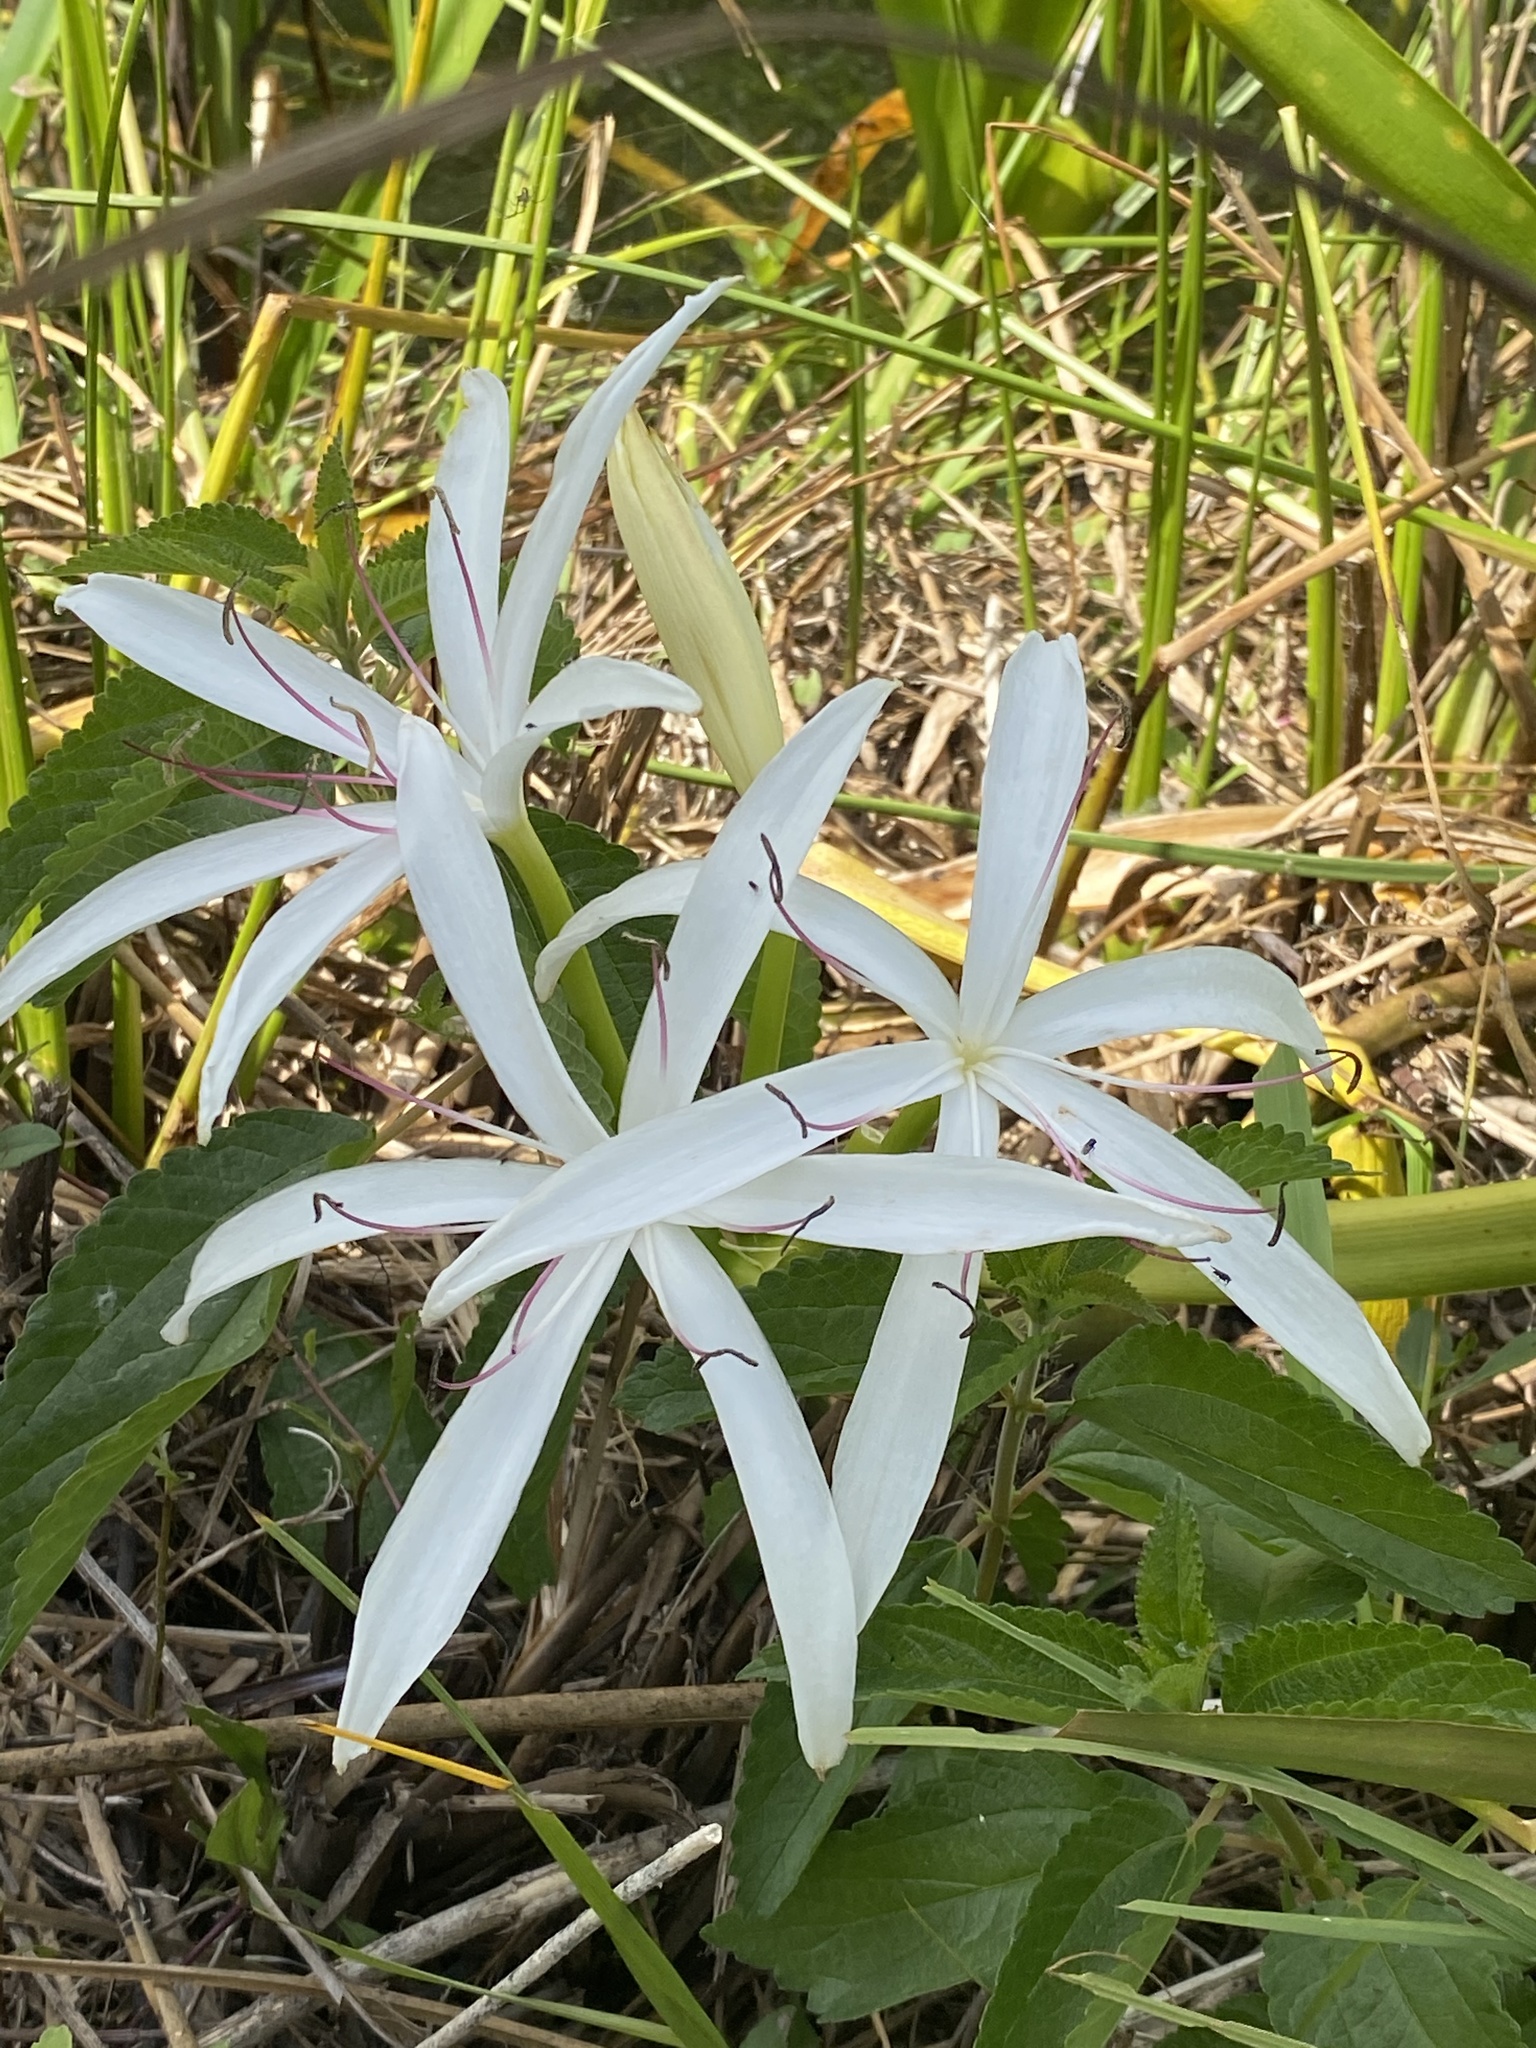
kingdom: Plantae
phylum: Tracheophyta
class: Liliopsida
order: Asparagales
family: Amaryllidaceae
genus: Crinum
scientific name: Crinum americanum
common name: Florida swamp-lily
